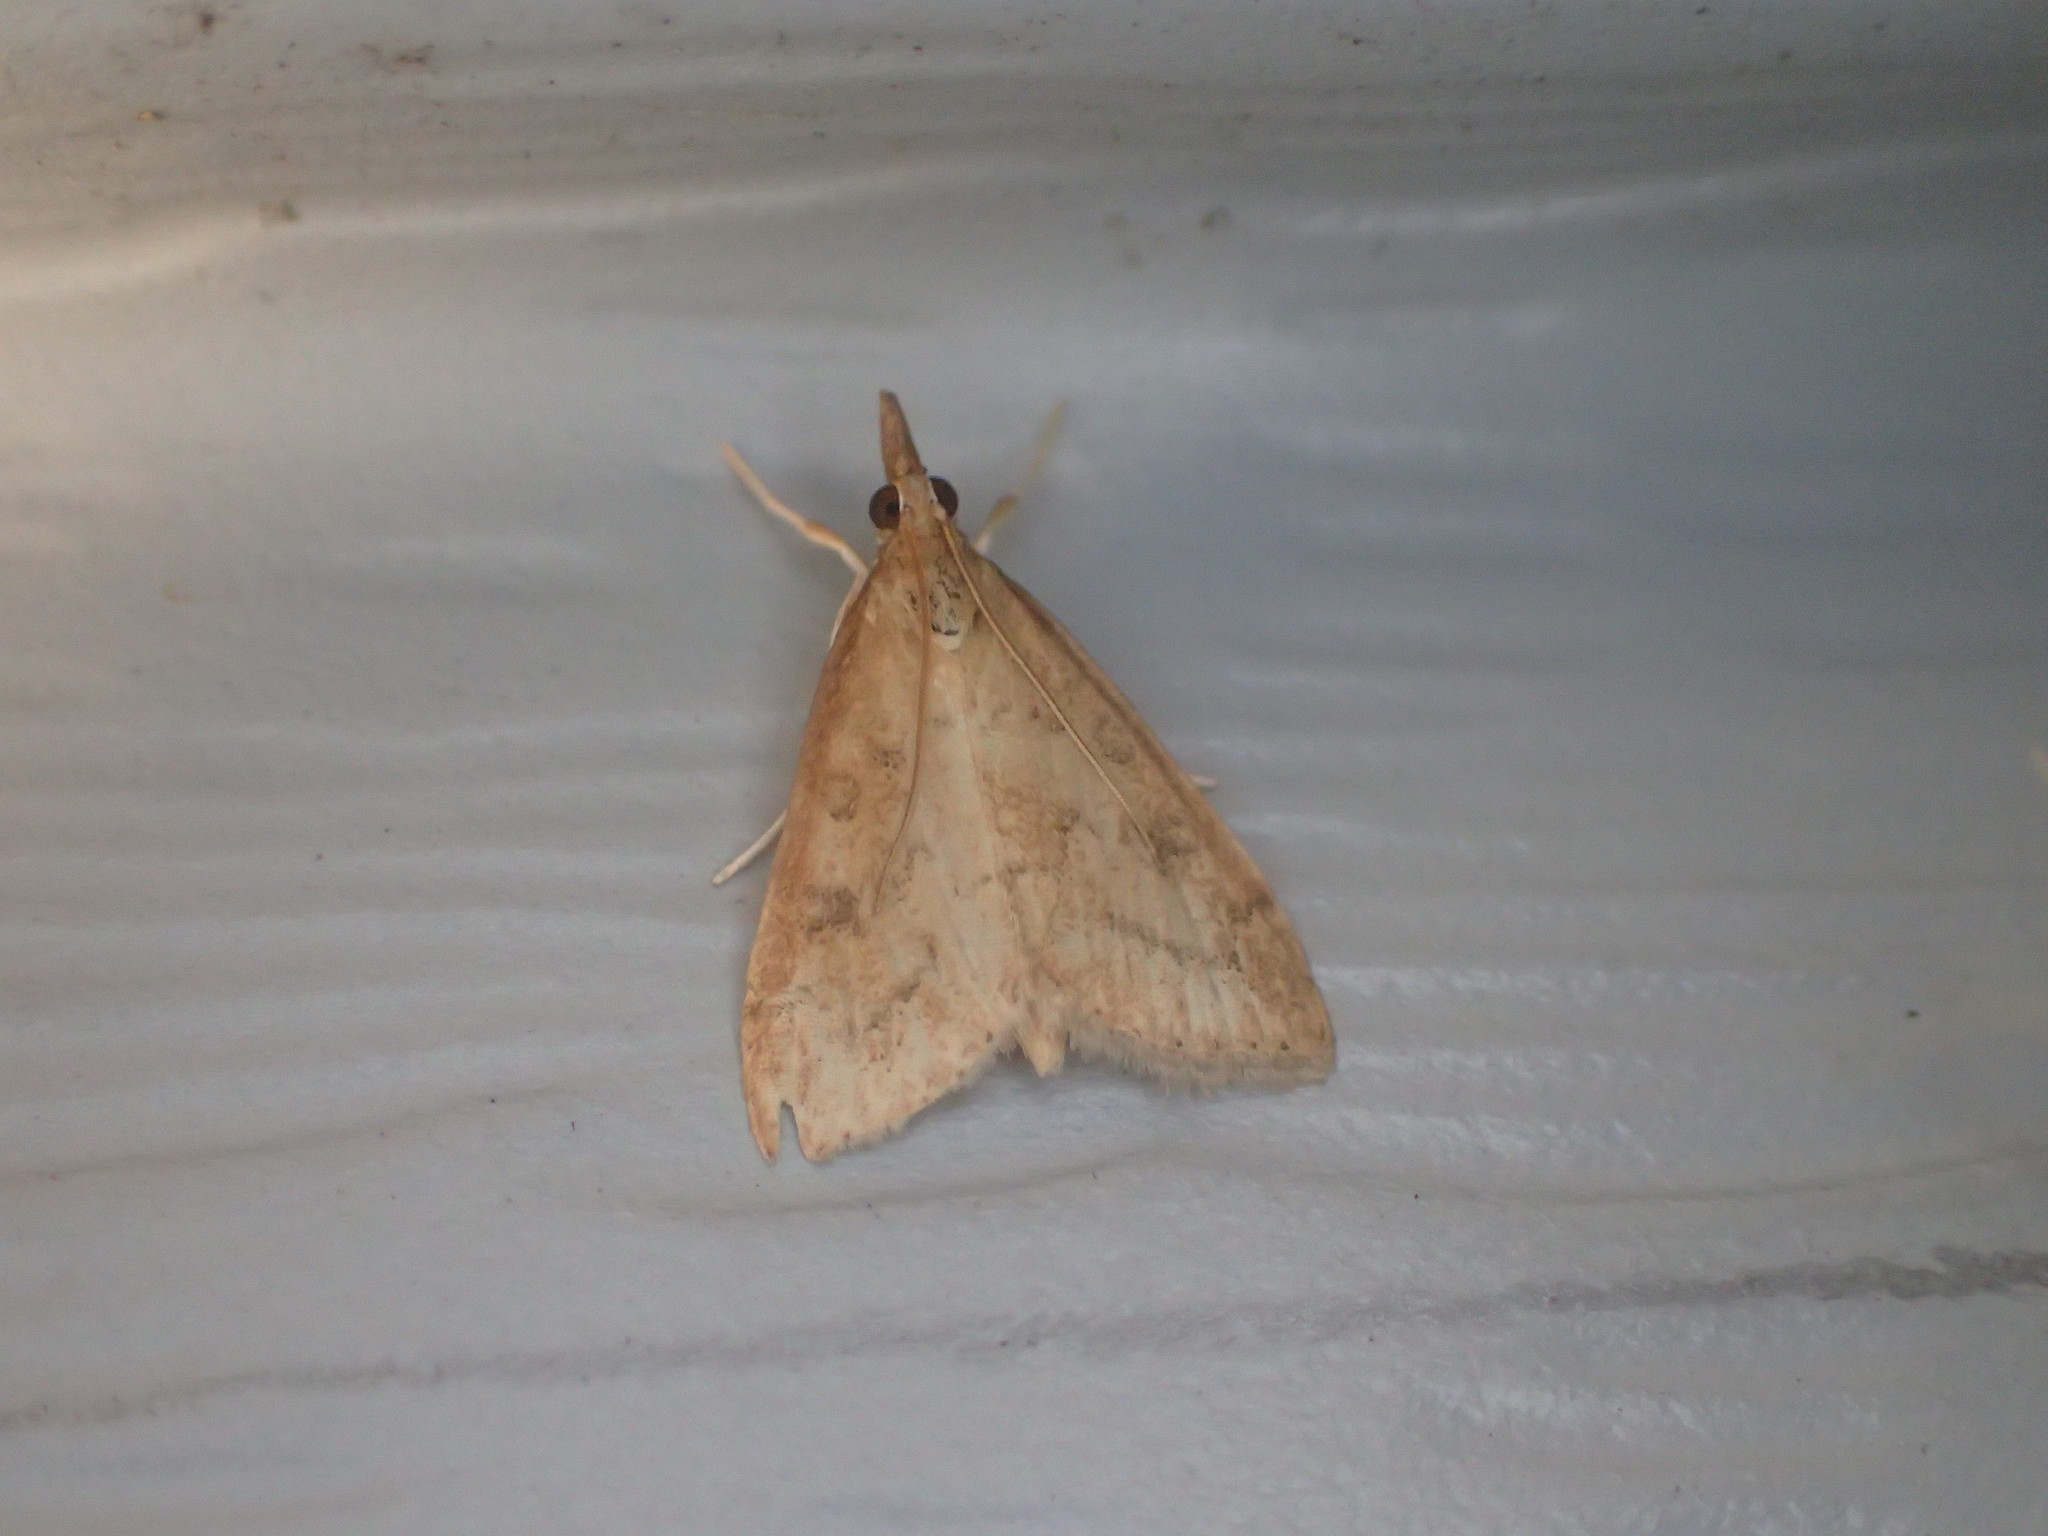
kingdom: Animalia
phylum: Arthropoda
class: Insecta
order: Lepidoptera
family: Crambidae
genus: Udea
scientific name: Udea rubigalis
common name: Celery leaftier moth
